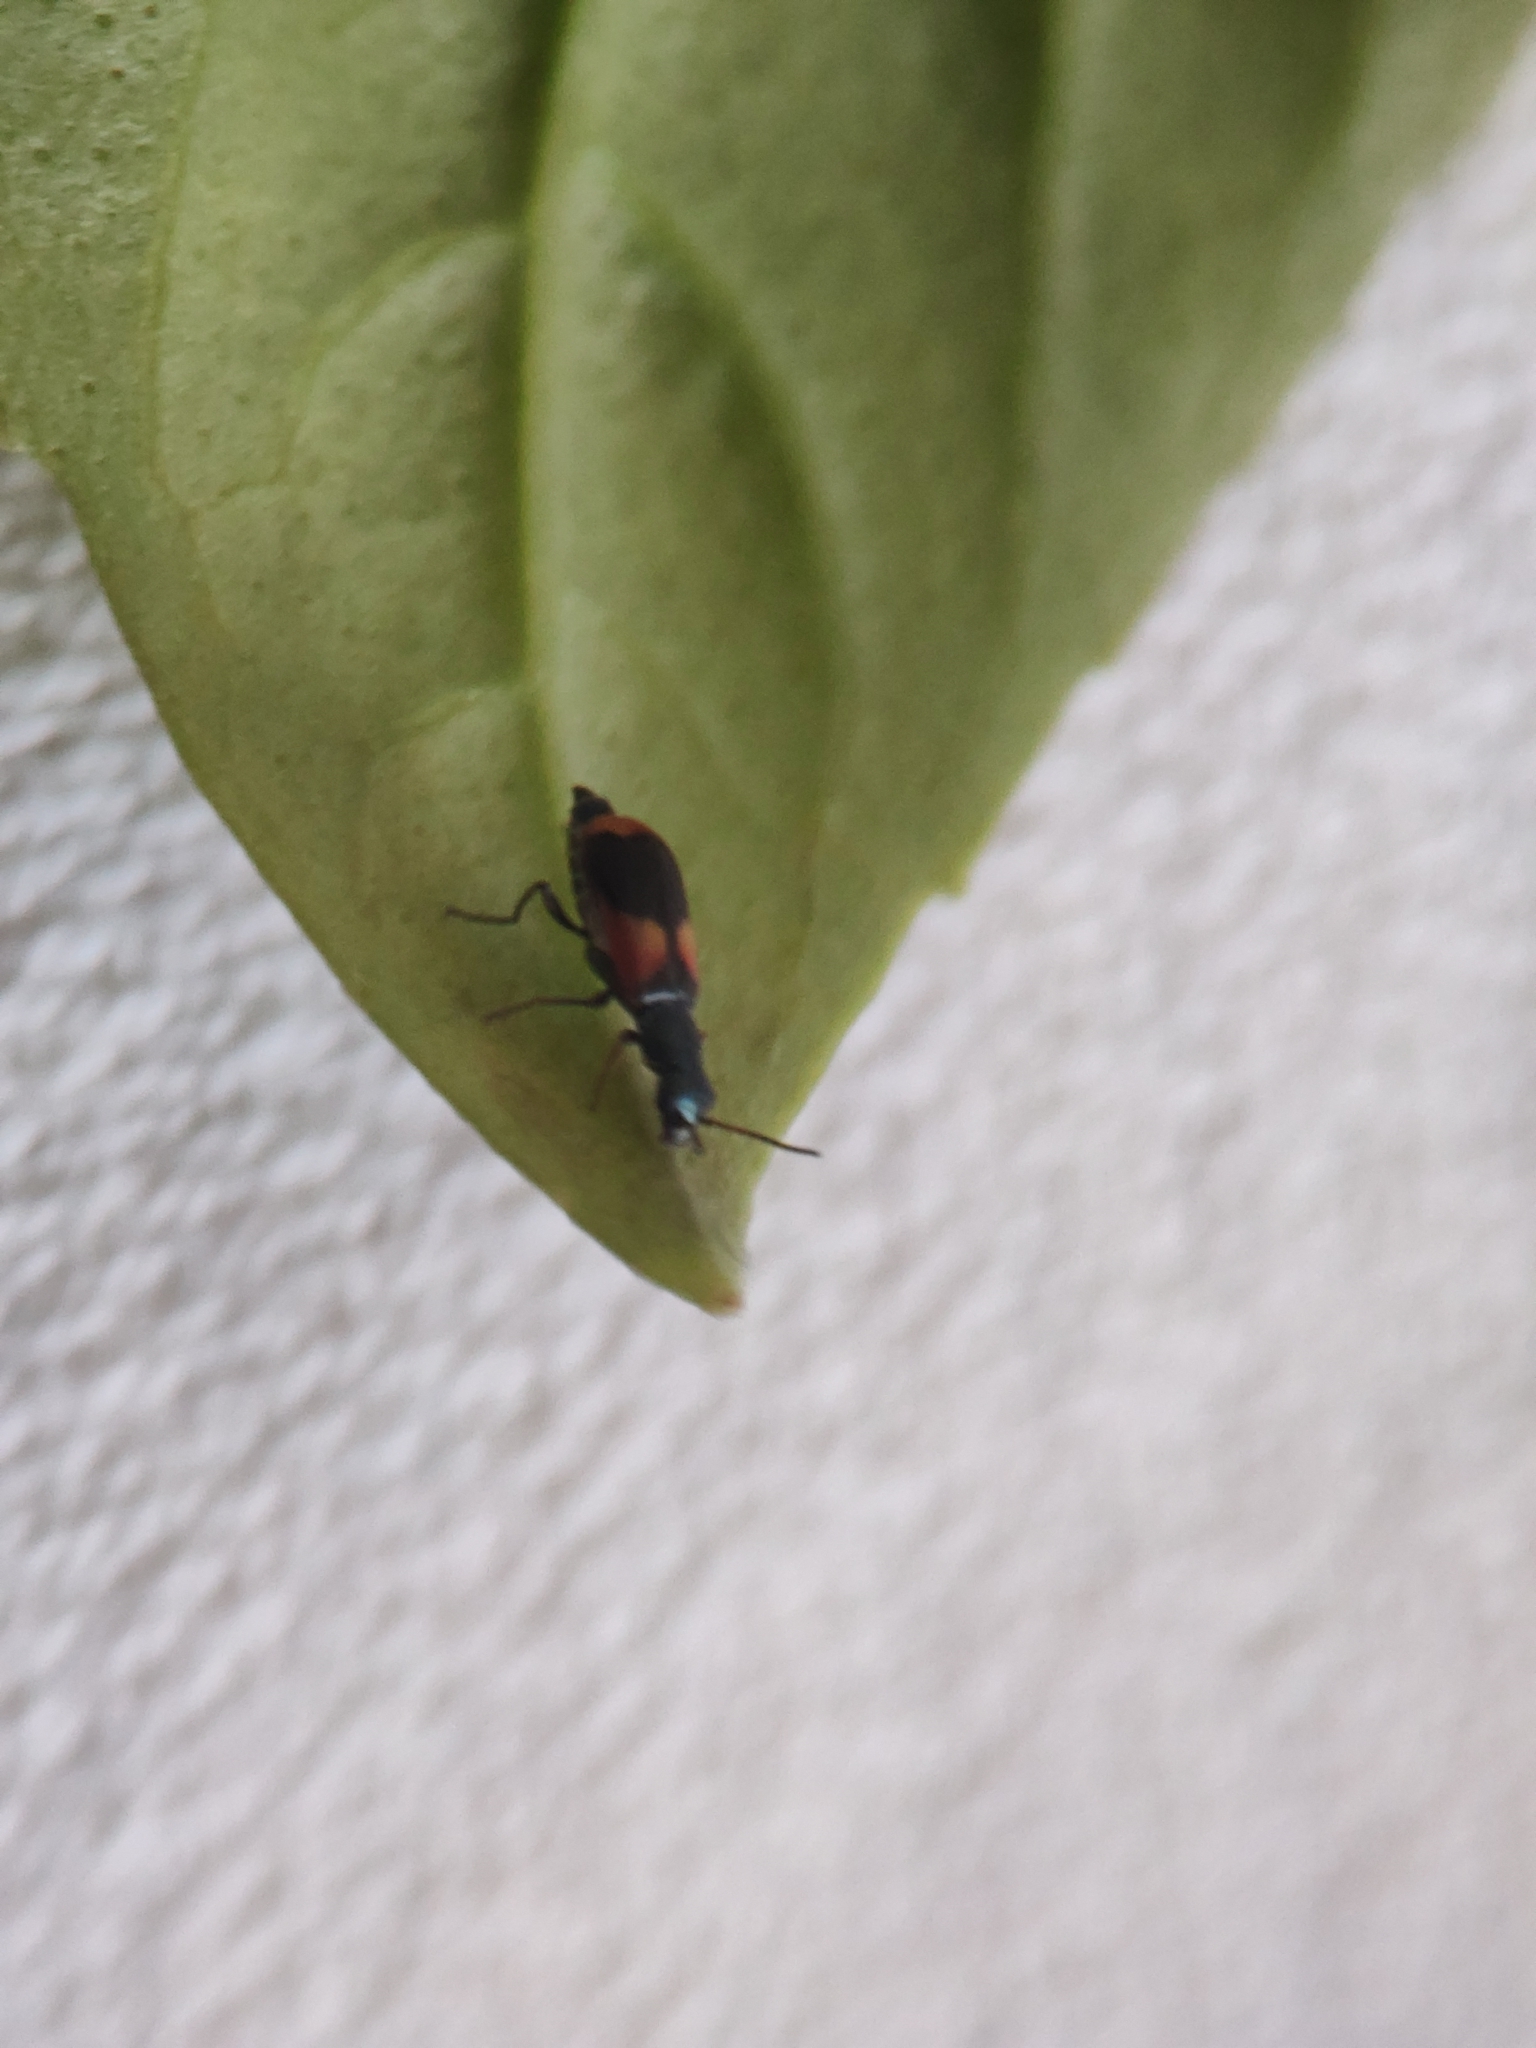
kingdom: Animalia
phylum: Arthropoda
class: Insecta
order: Coleoptera
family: Melyridae
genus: Anthocomus
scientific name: Anthocomus equestris
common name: Black-banded soft-winged flower beetle
